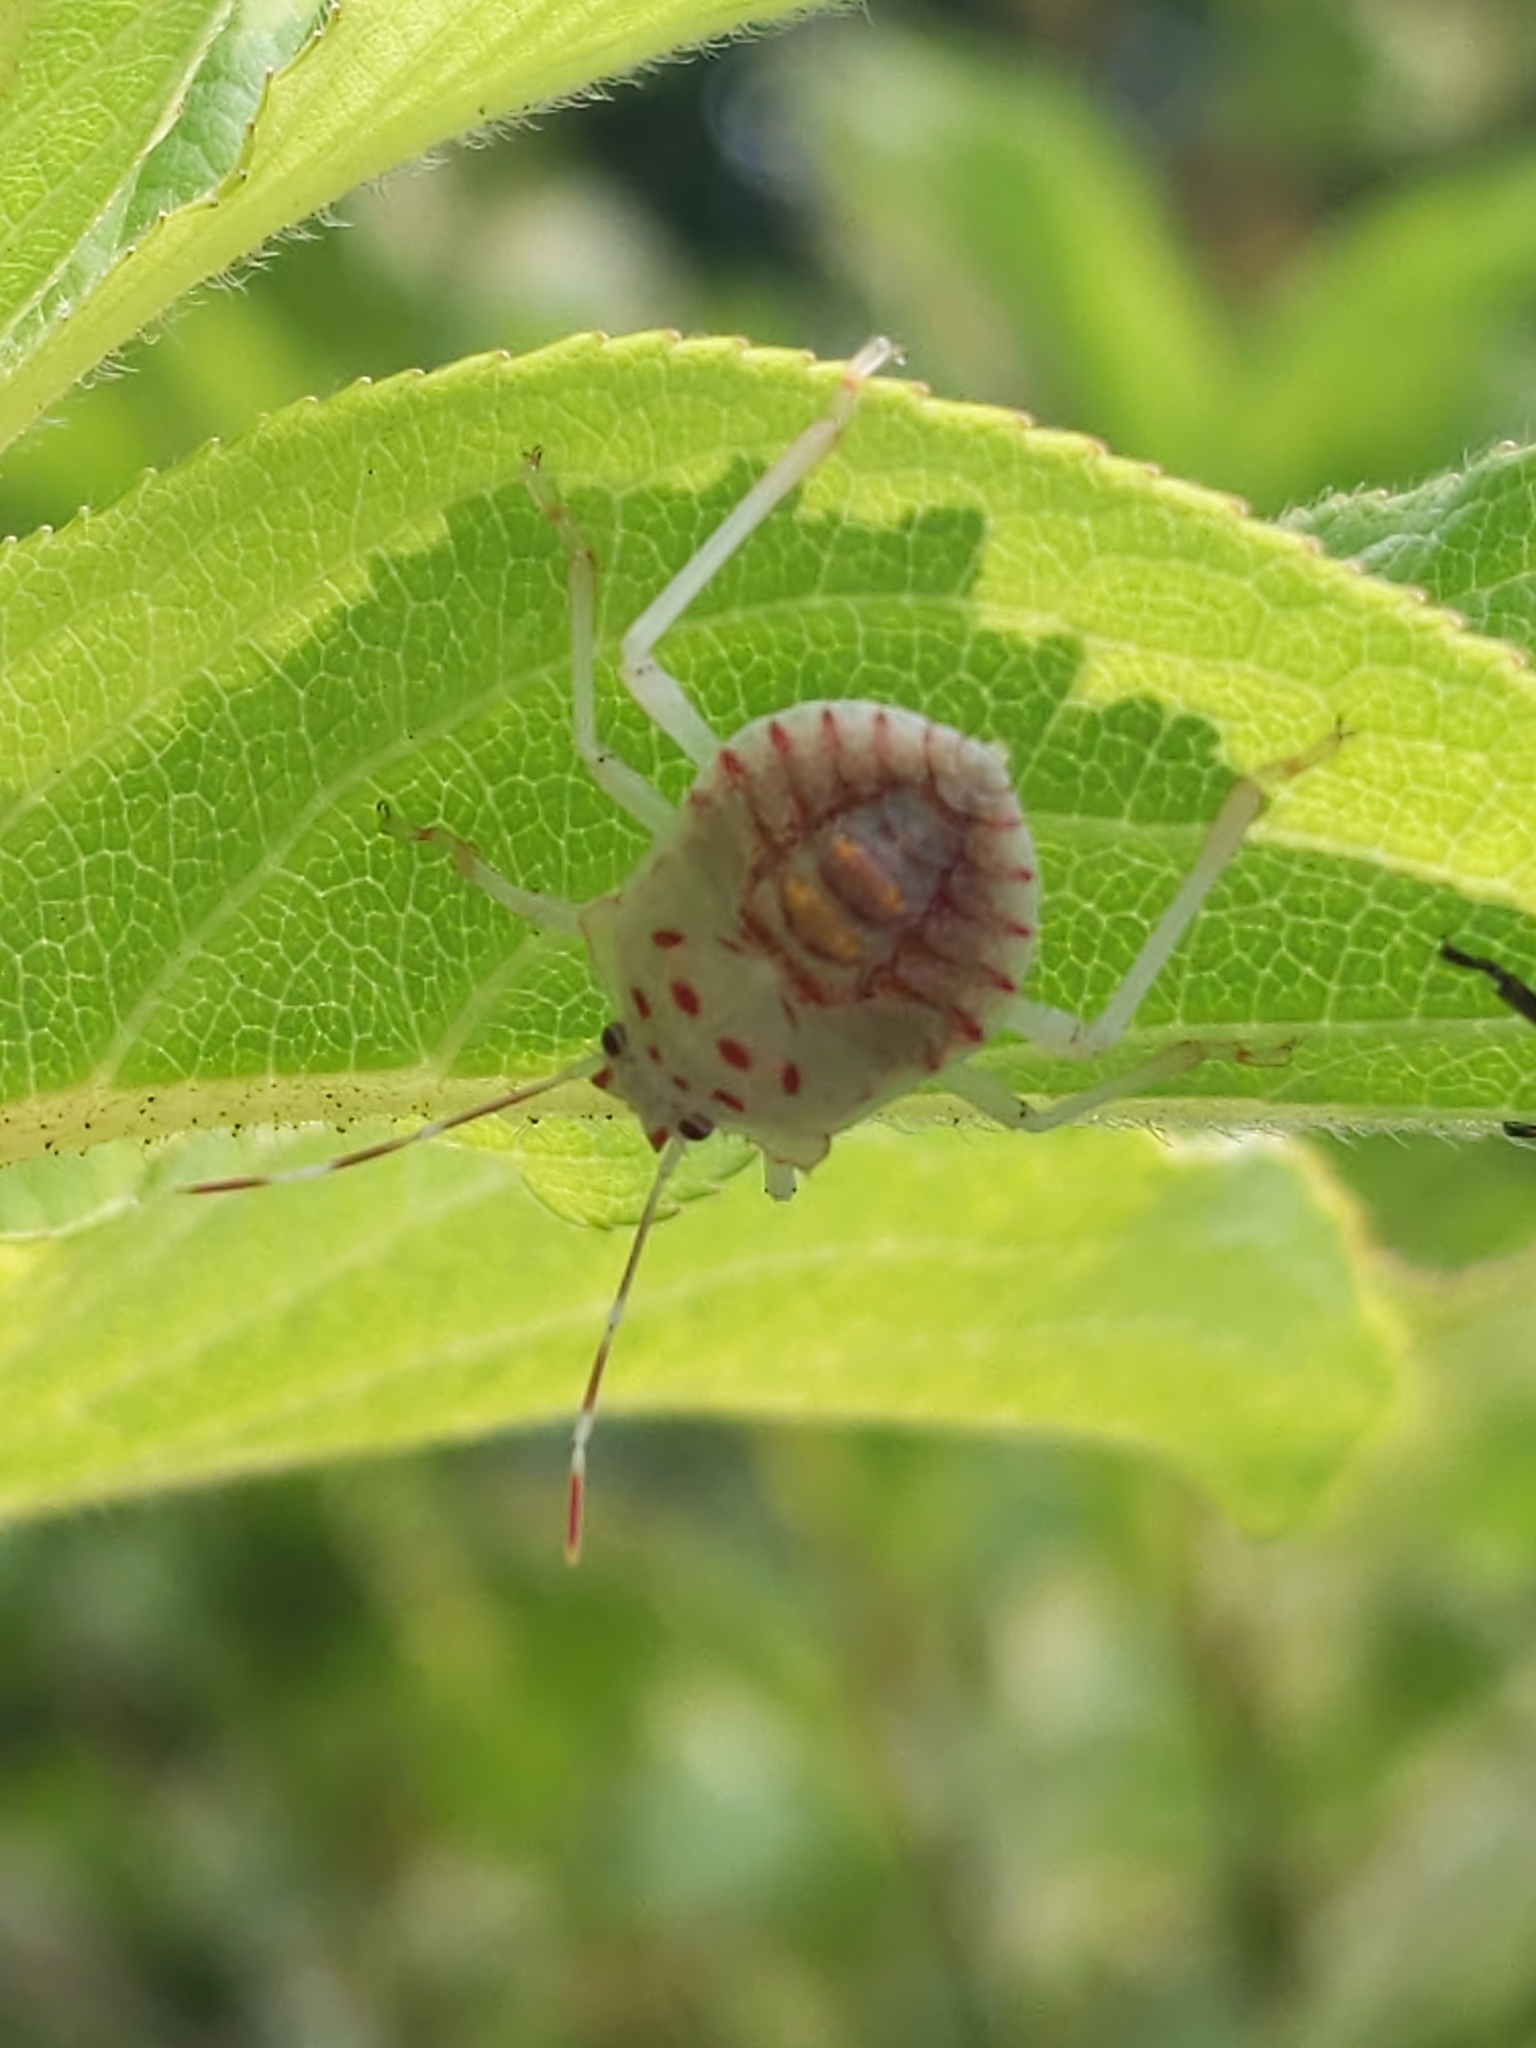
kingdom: Animalia
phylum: Arthropoda
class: Insecta
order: Hemiptera
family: Pentatomidae
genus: Halyomorpha
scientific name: Halyomorpha halys
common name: Brown marmorated stink bug
